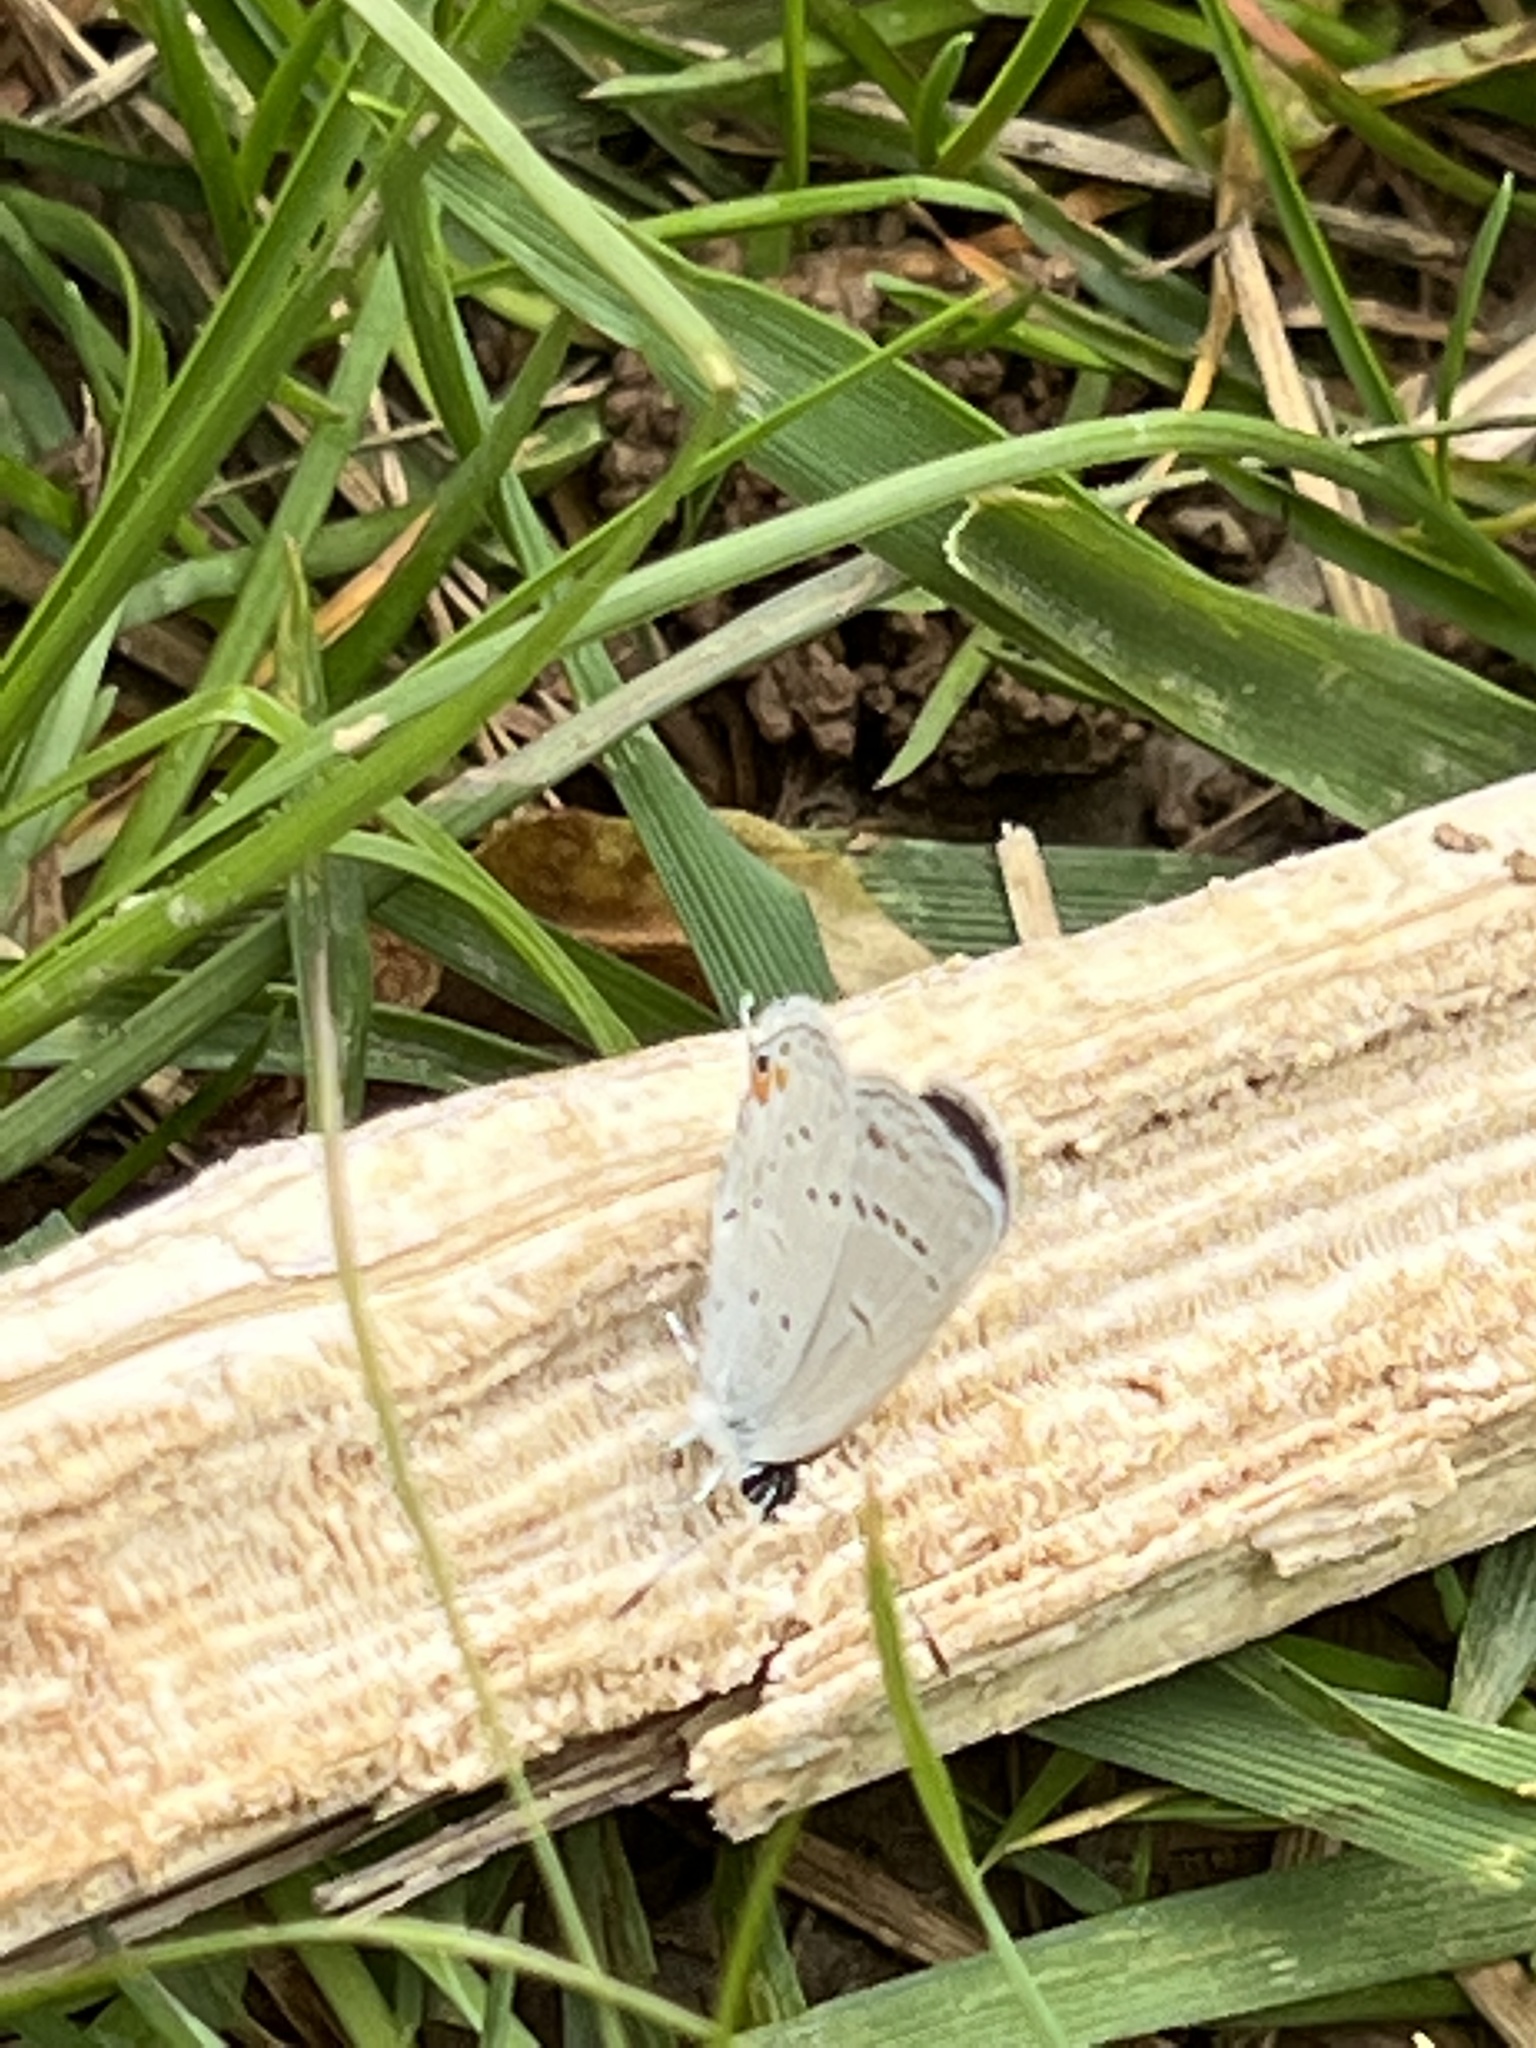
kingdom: Animalia
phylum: Arthropoda
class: Insecta
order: Lepidoptera
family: Lycaenidae
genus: Elkalyce
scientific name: Elkalyce comyntas
